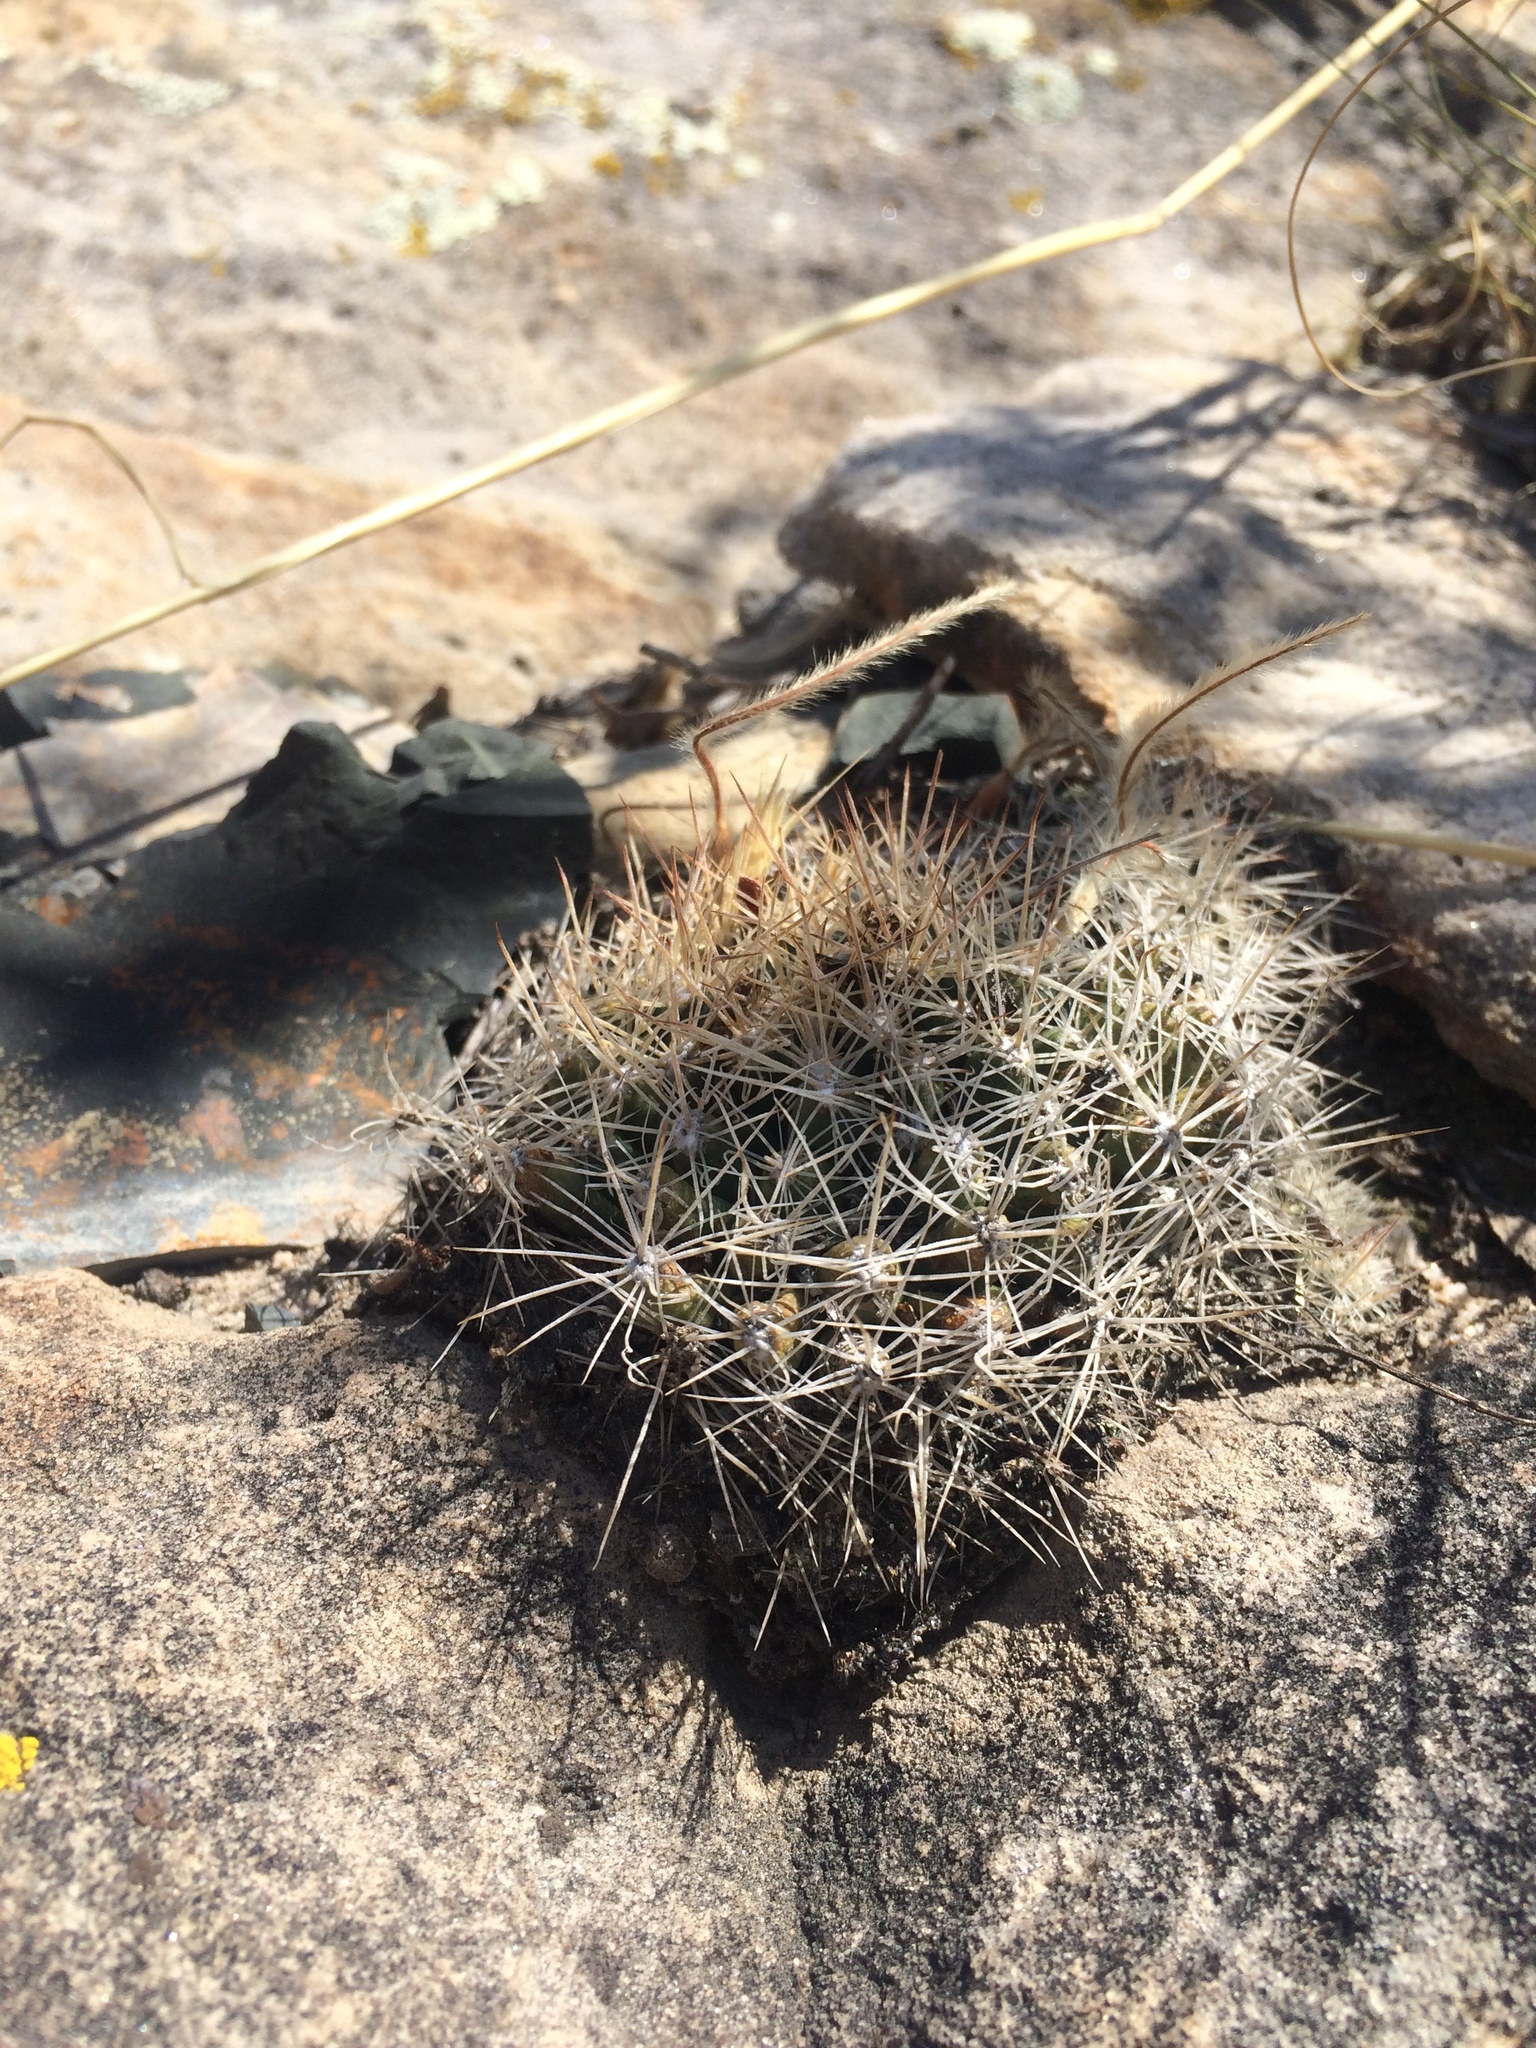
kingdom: Plantae
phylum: Tracheophyta
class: Magnoliopsida
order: Caryophyllales
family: Cactaceae
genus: Pelecyphora
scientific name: Pelecyphora missouriensis
